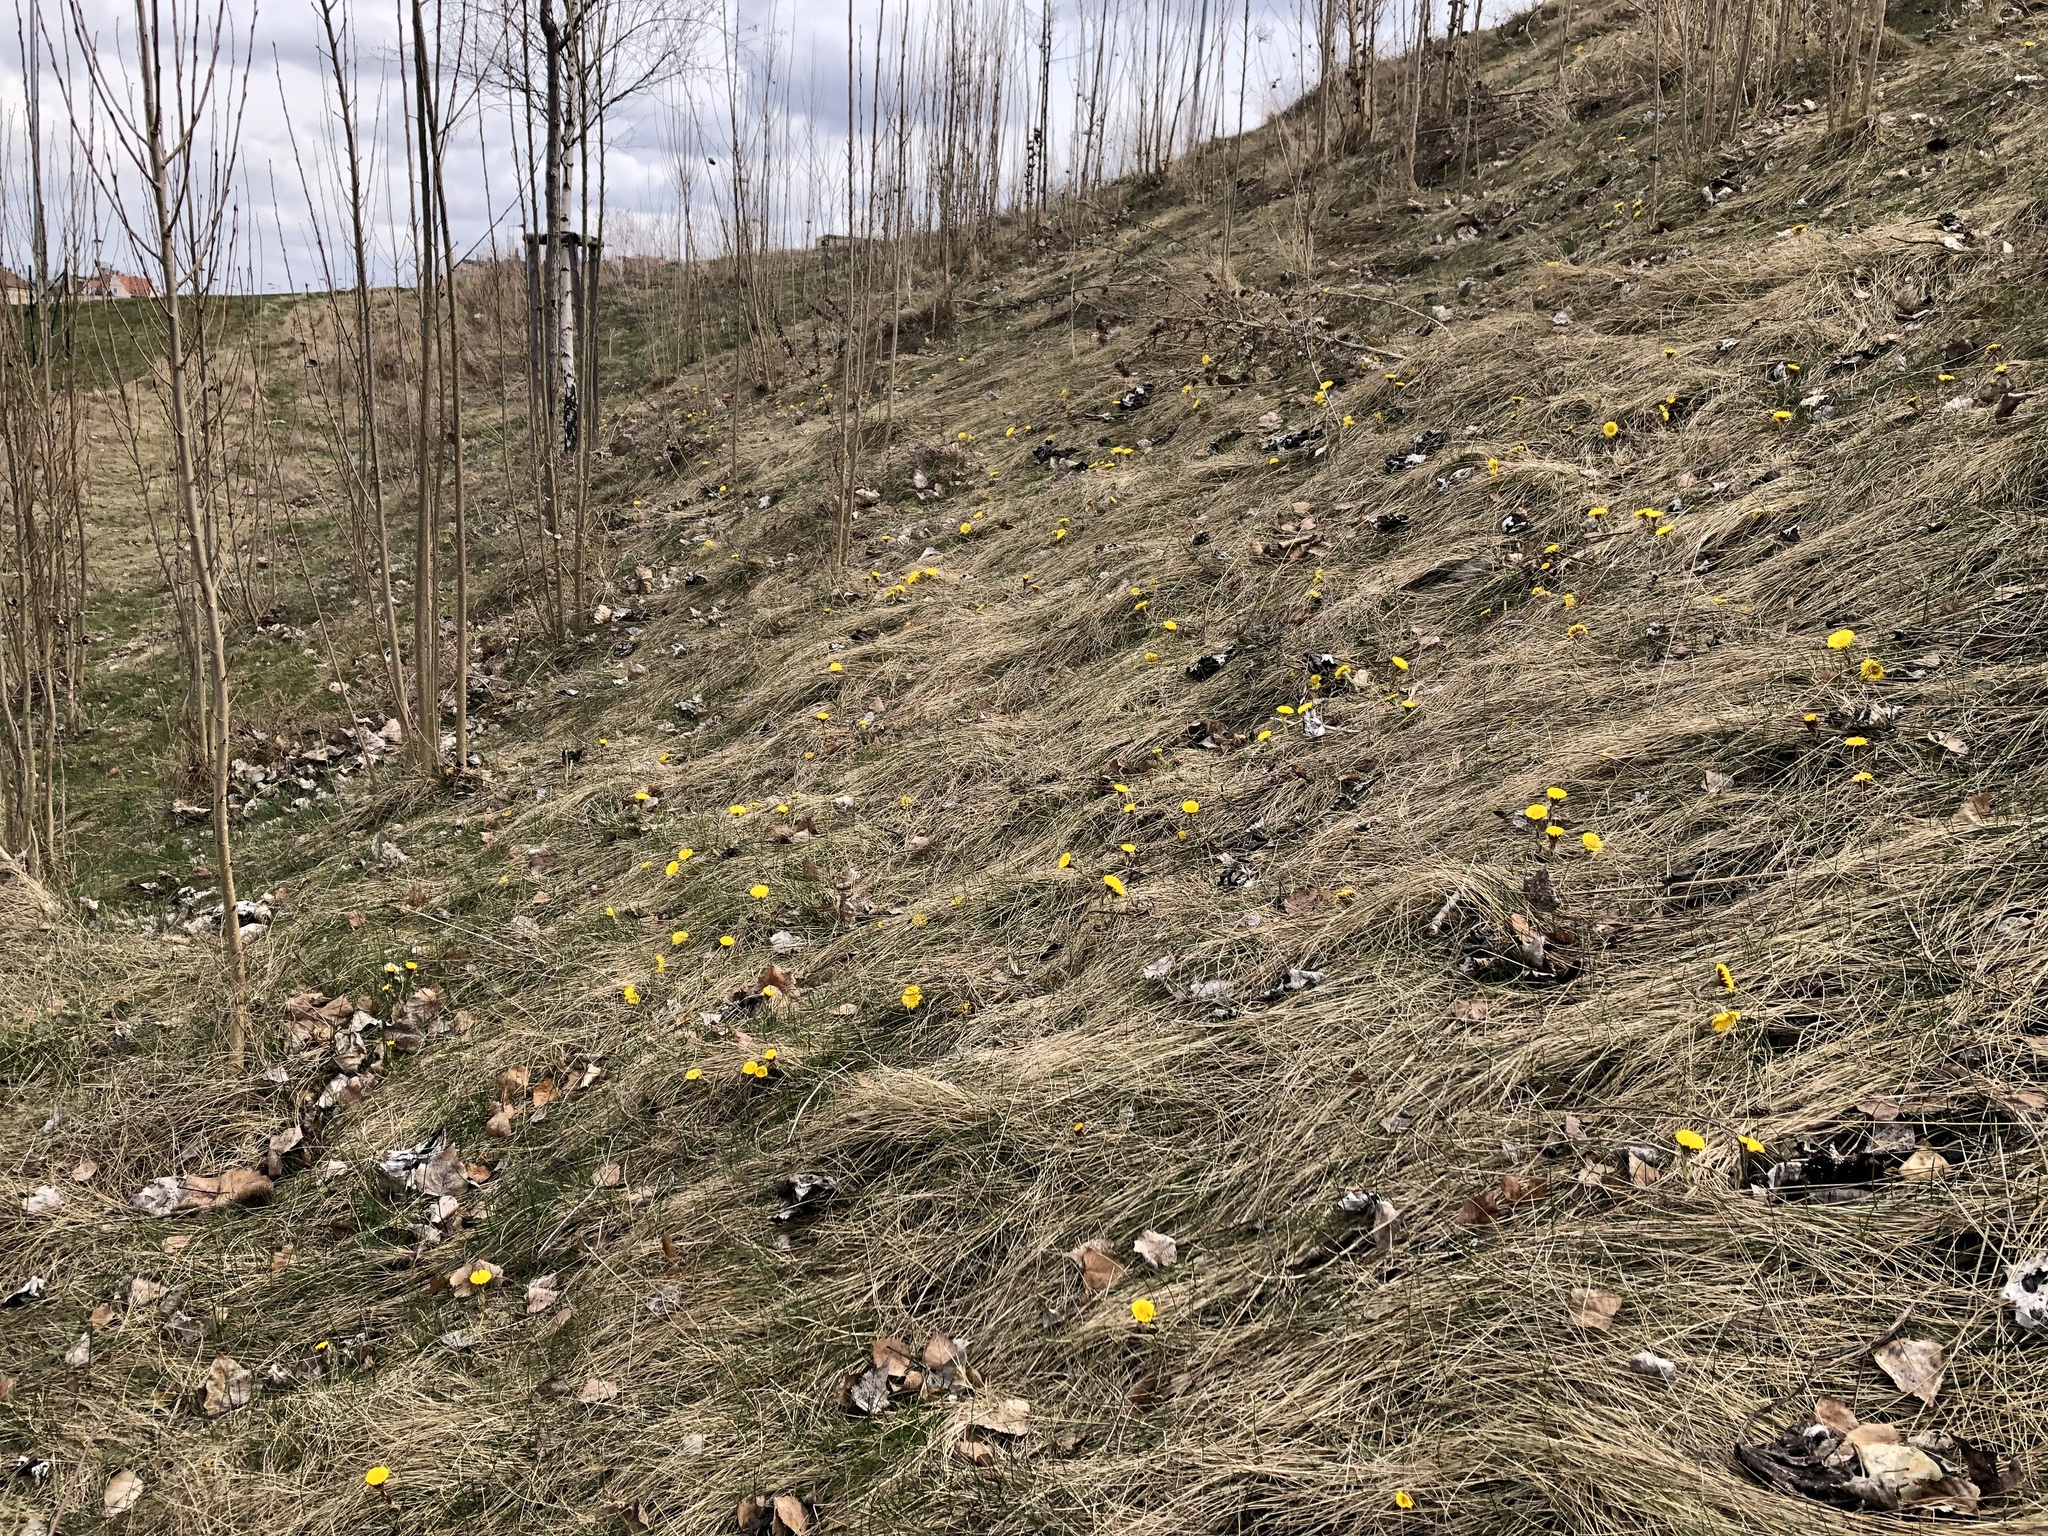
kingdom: Plantae
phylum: Tracheophyta
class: Magnoliopsida
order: Asterales
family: Asteraceae
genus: Tussilago
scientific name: Tussilago farfara
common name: Coltsfoot
